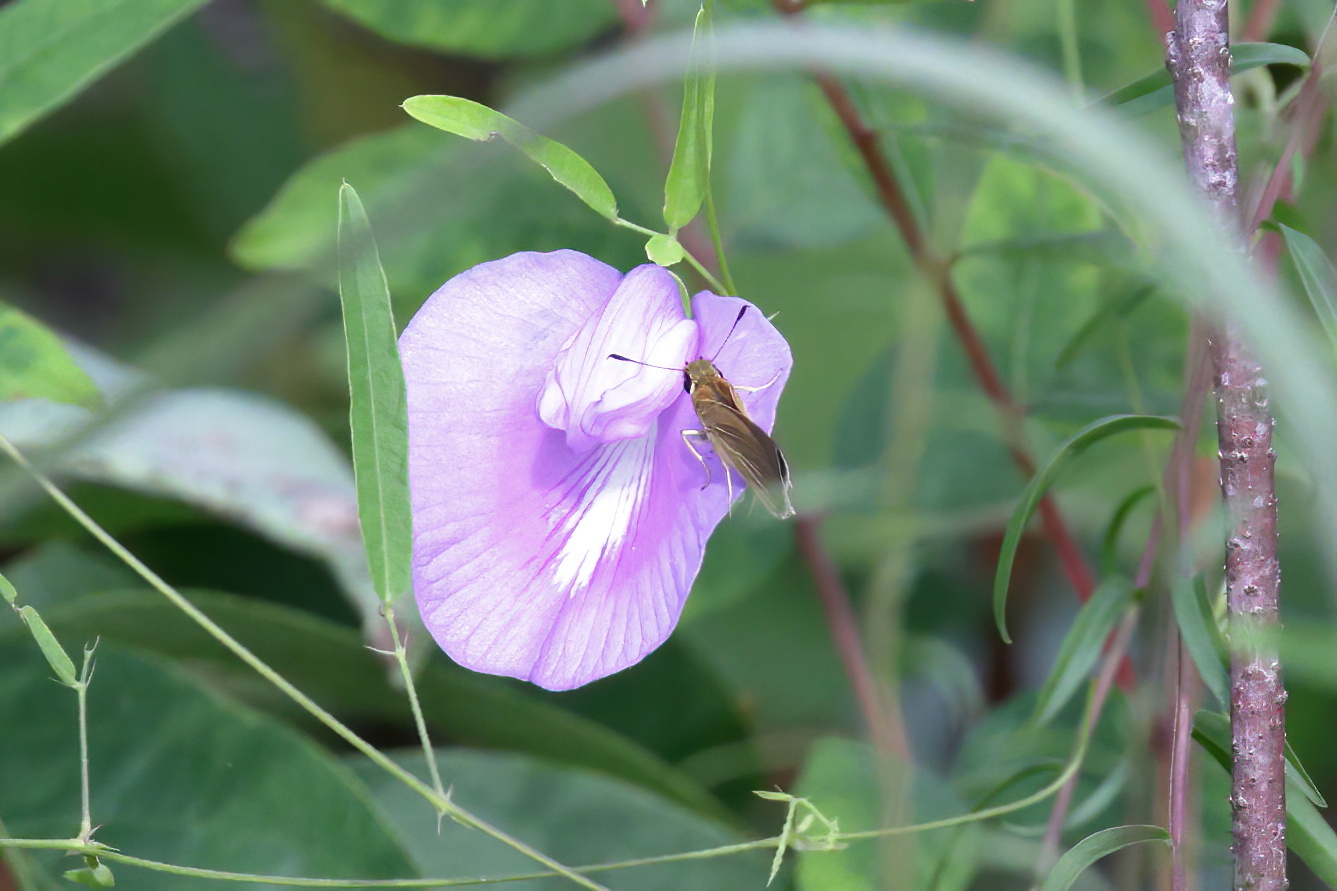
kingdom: Plantae
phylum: Tracheophyta
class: Magnoliopsida
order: Fabales
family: Fabaceae
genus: Centrosema
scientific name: Centrosema virginianum
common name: Butterfly-pea
